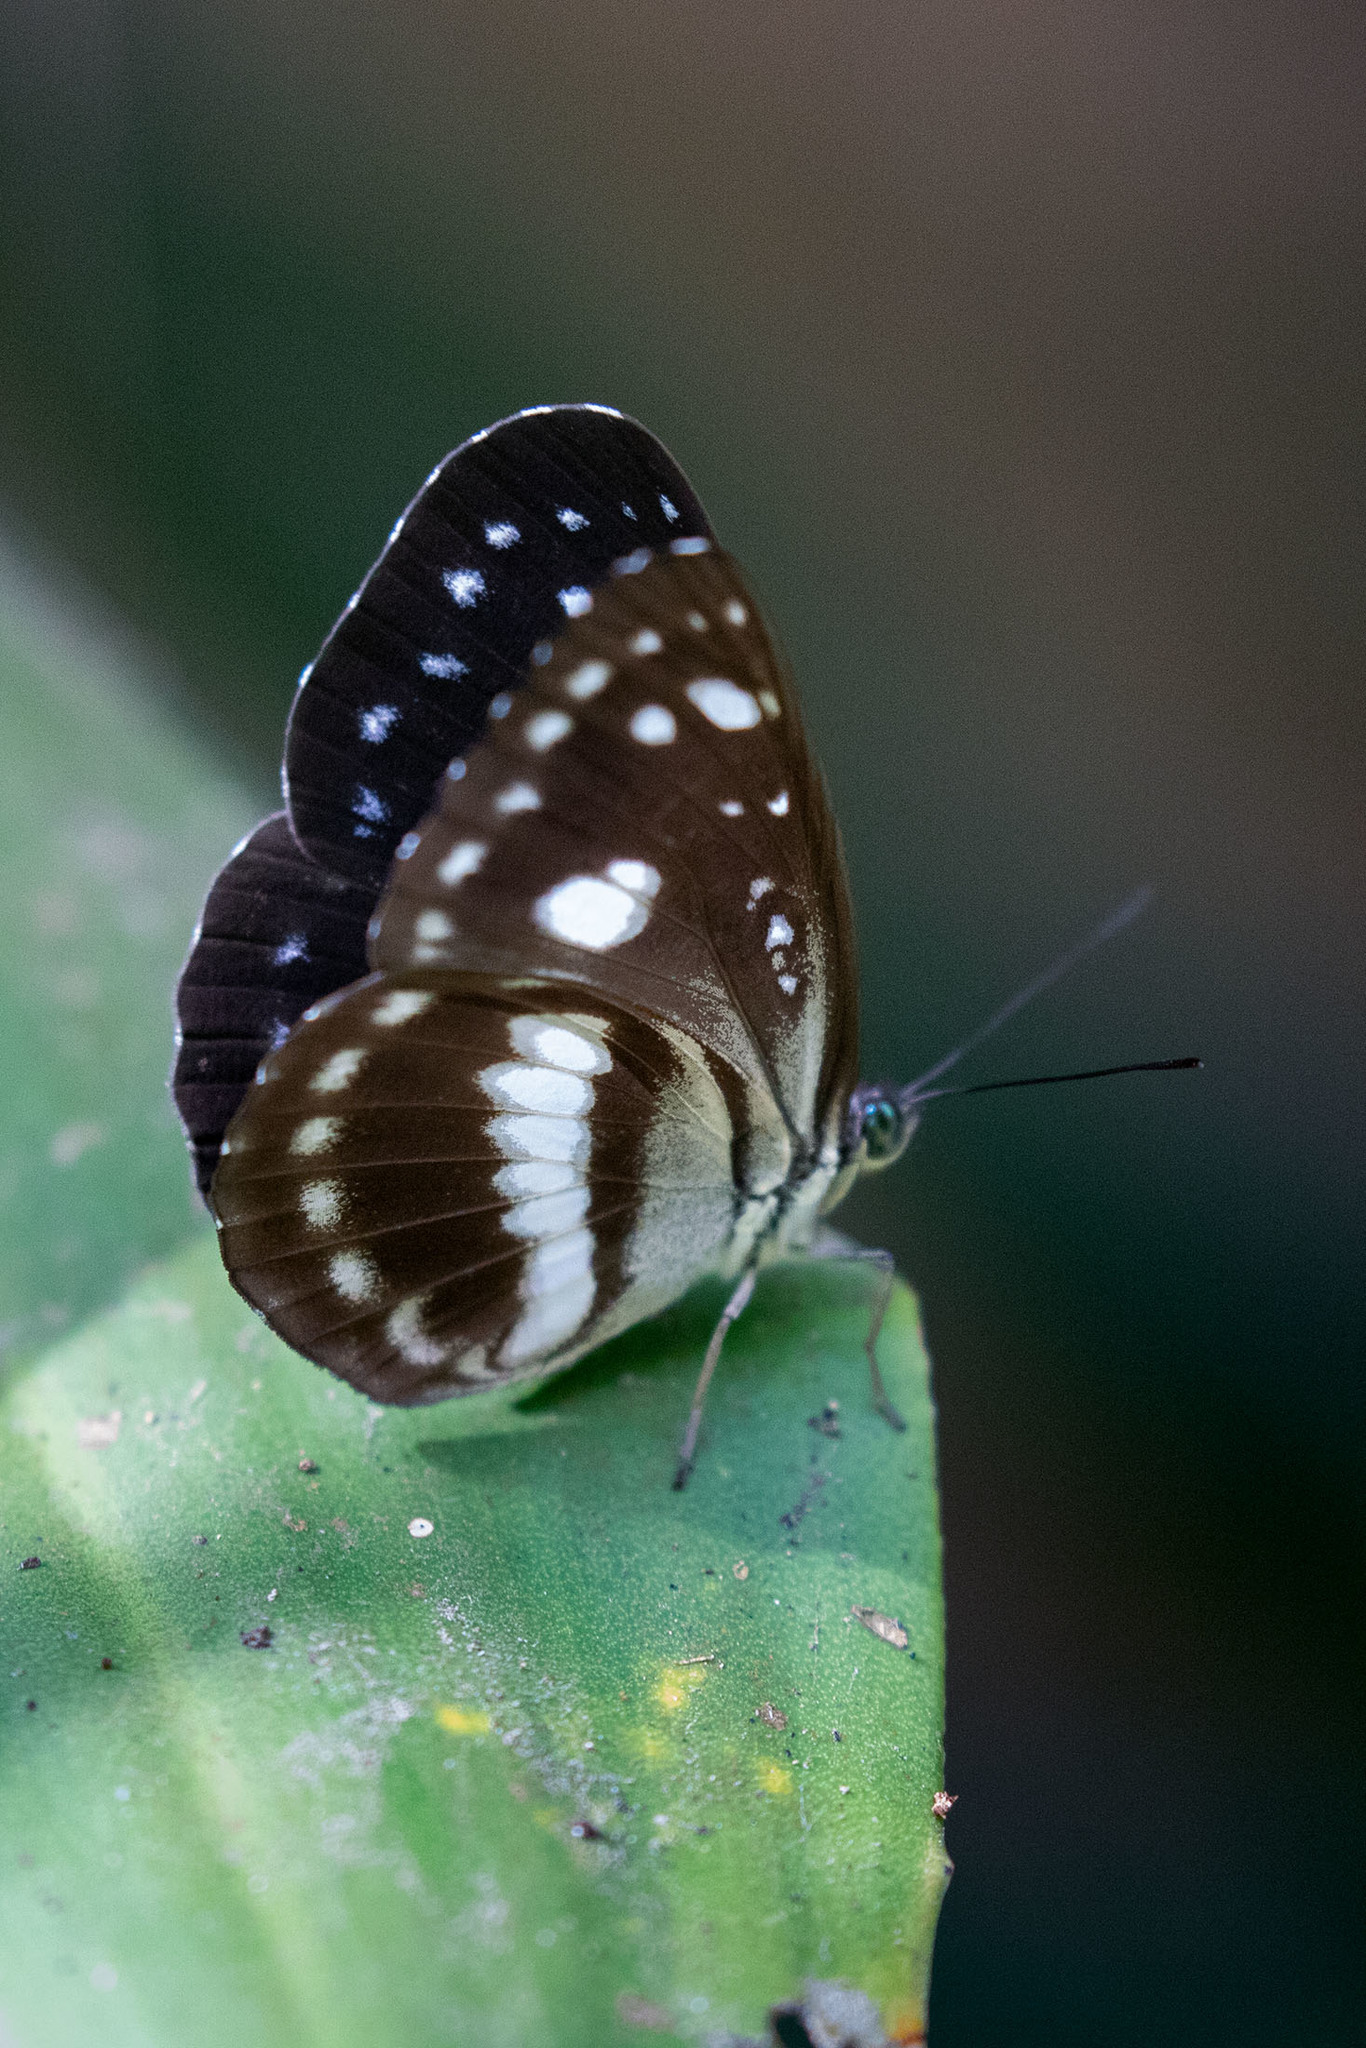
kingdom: Animalia
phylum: Arthropoda
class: Insecta
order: Lepidoptera
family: Nymphalidae
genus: Pantoporia
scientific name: Pantoporia venilia
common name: Cape york aeroplane
